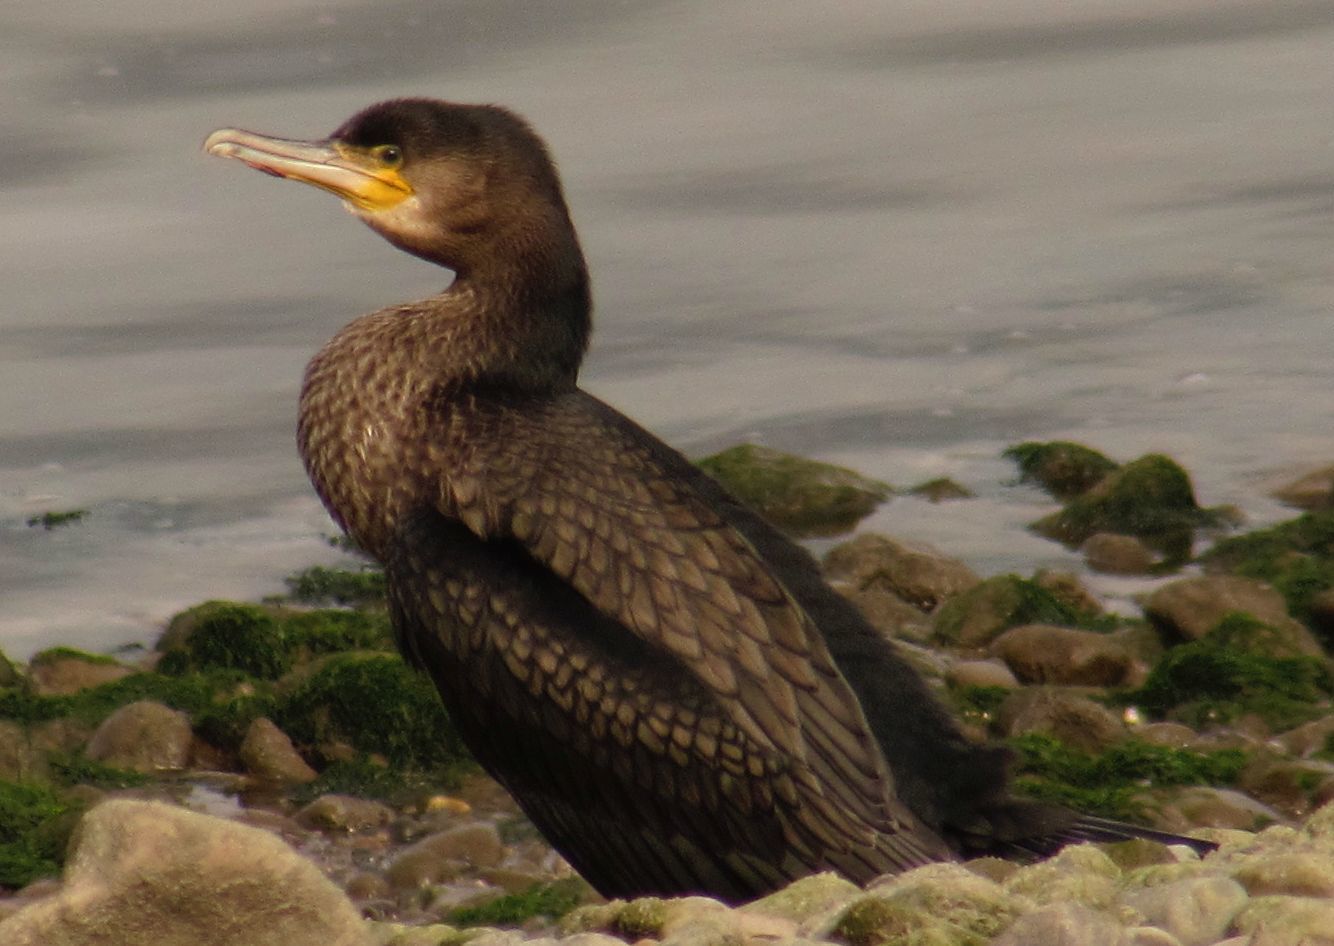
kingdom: Animalia
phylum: Chordata
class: Aves
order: Suliformes
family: Phalacrocoracidae
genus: Phalacrocorax
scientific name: Phalacrocorax carbo
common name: Great cormorant
